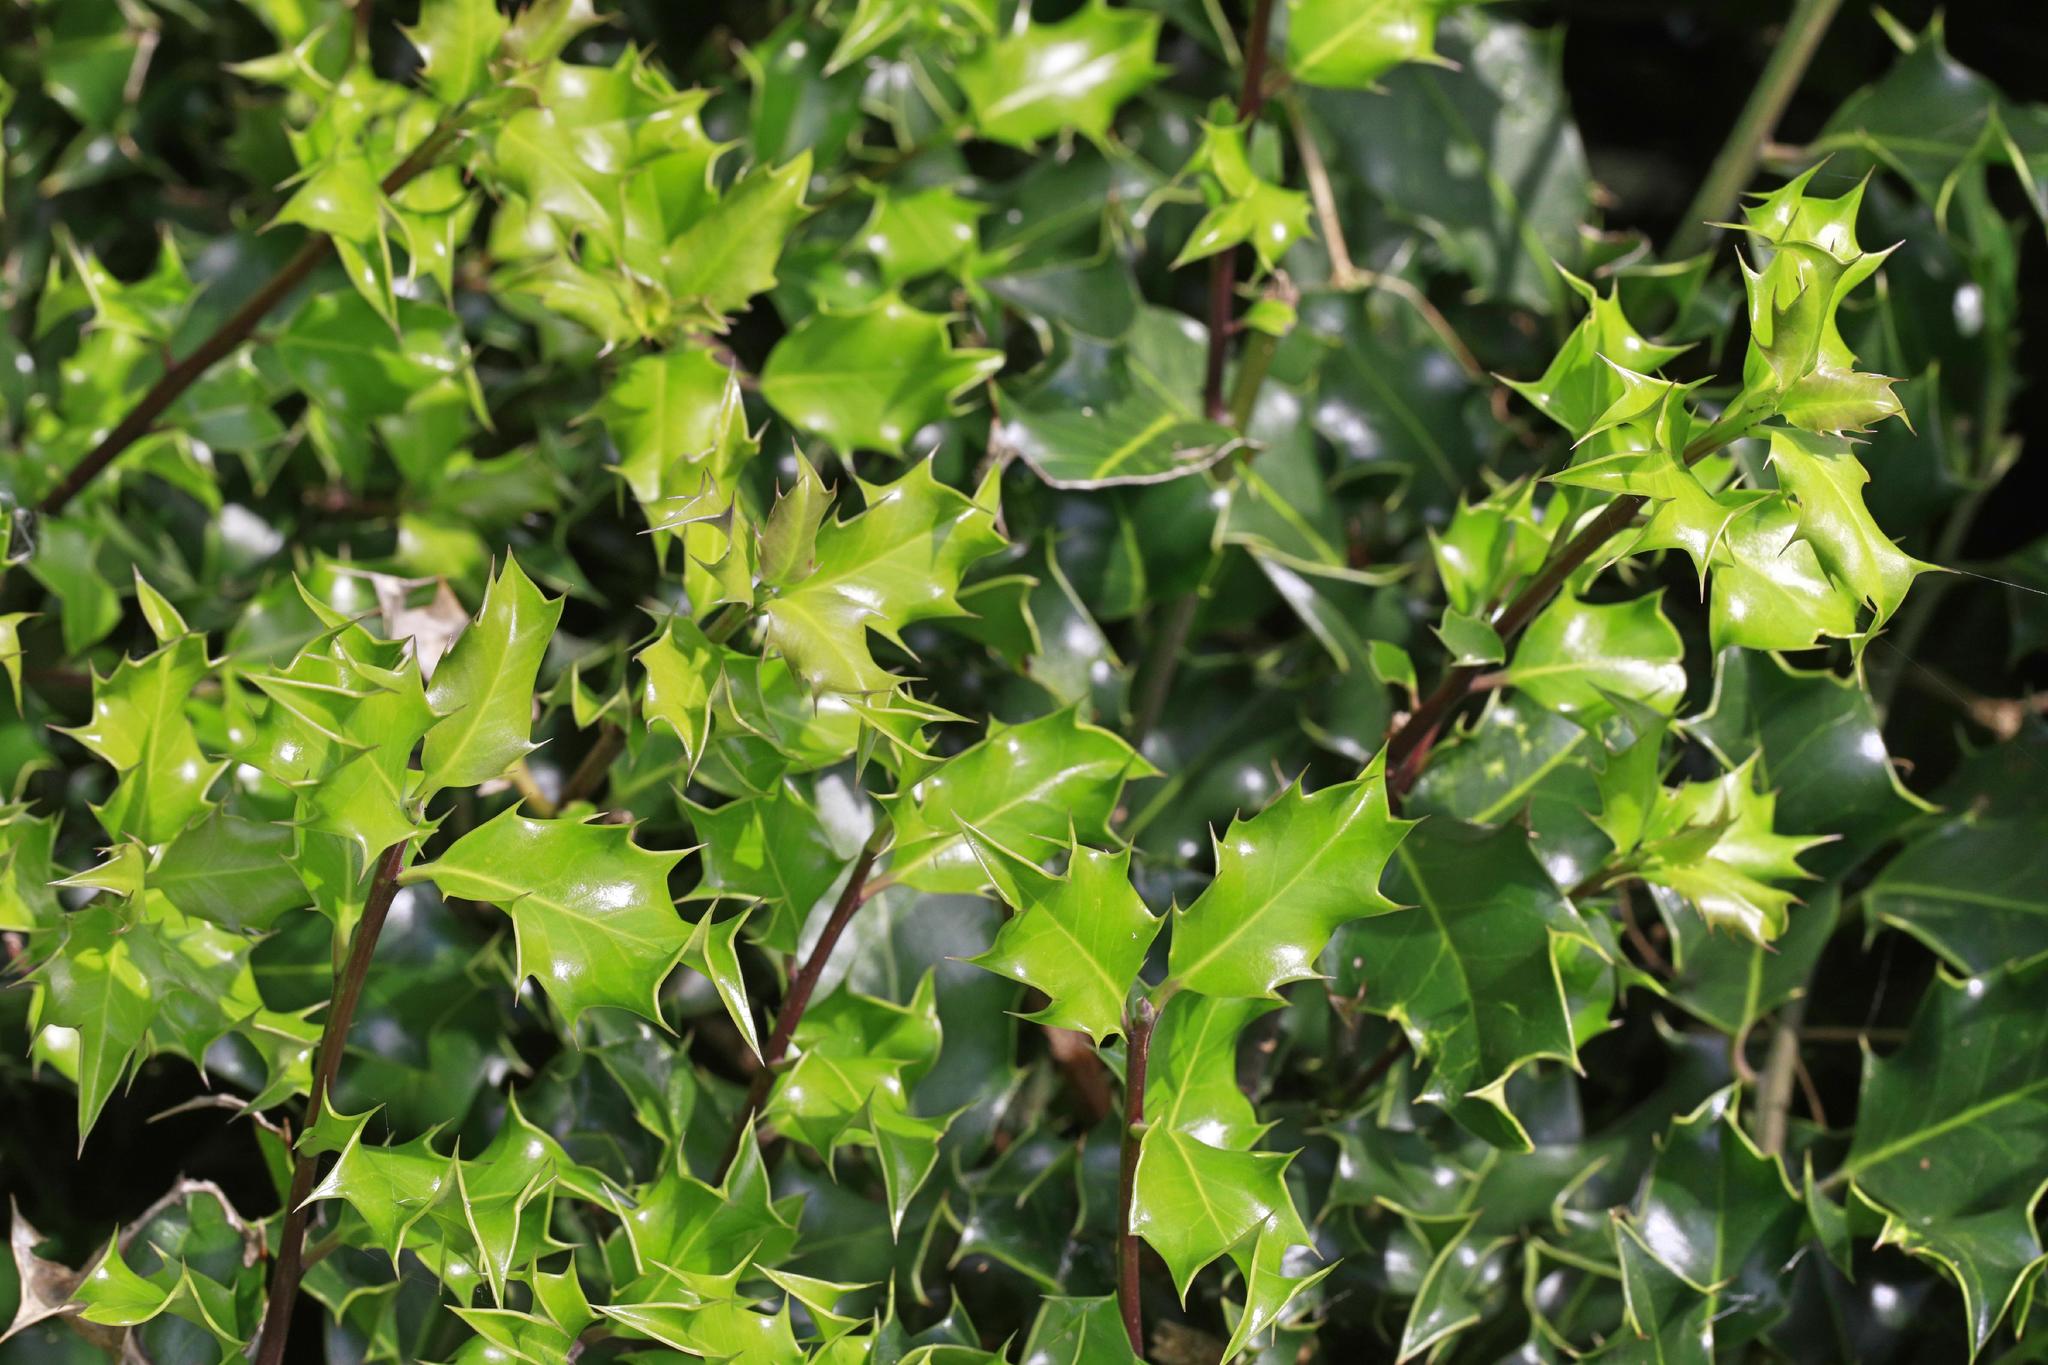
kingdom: Plantae
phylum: Tracheophyta
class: Magnoliopsida
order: Aquifoliales
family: Aquifoliaceae
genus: Ilex
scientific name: Ilex aquifolium
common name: English holly
